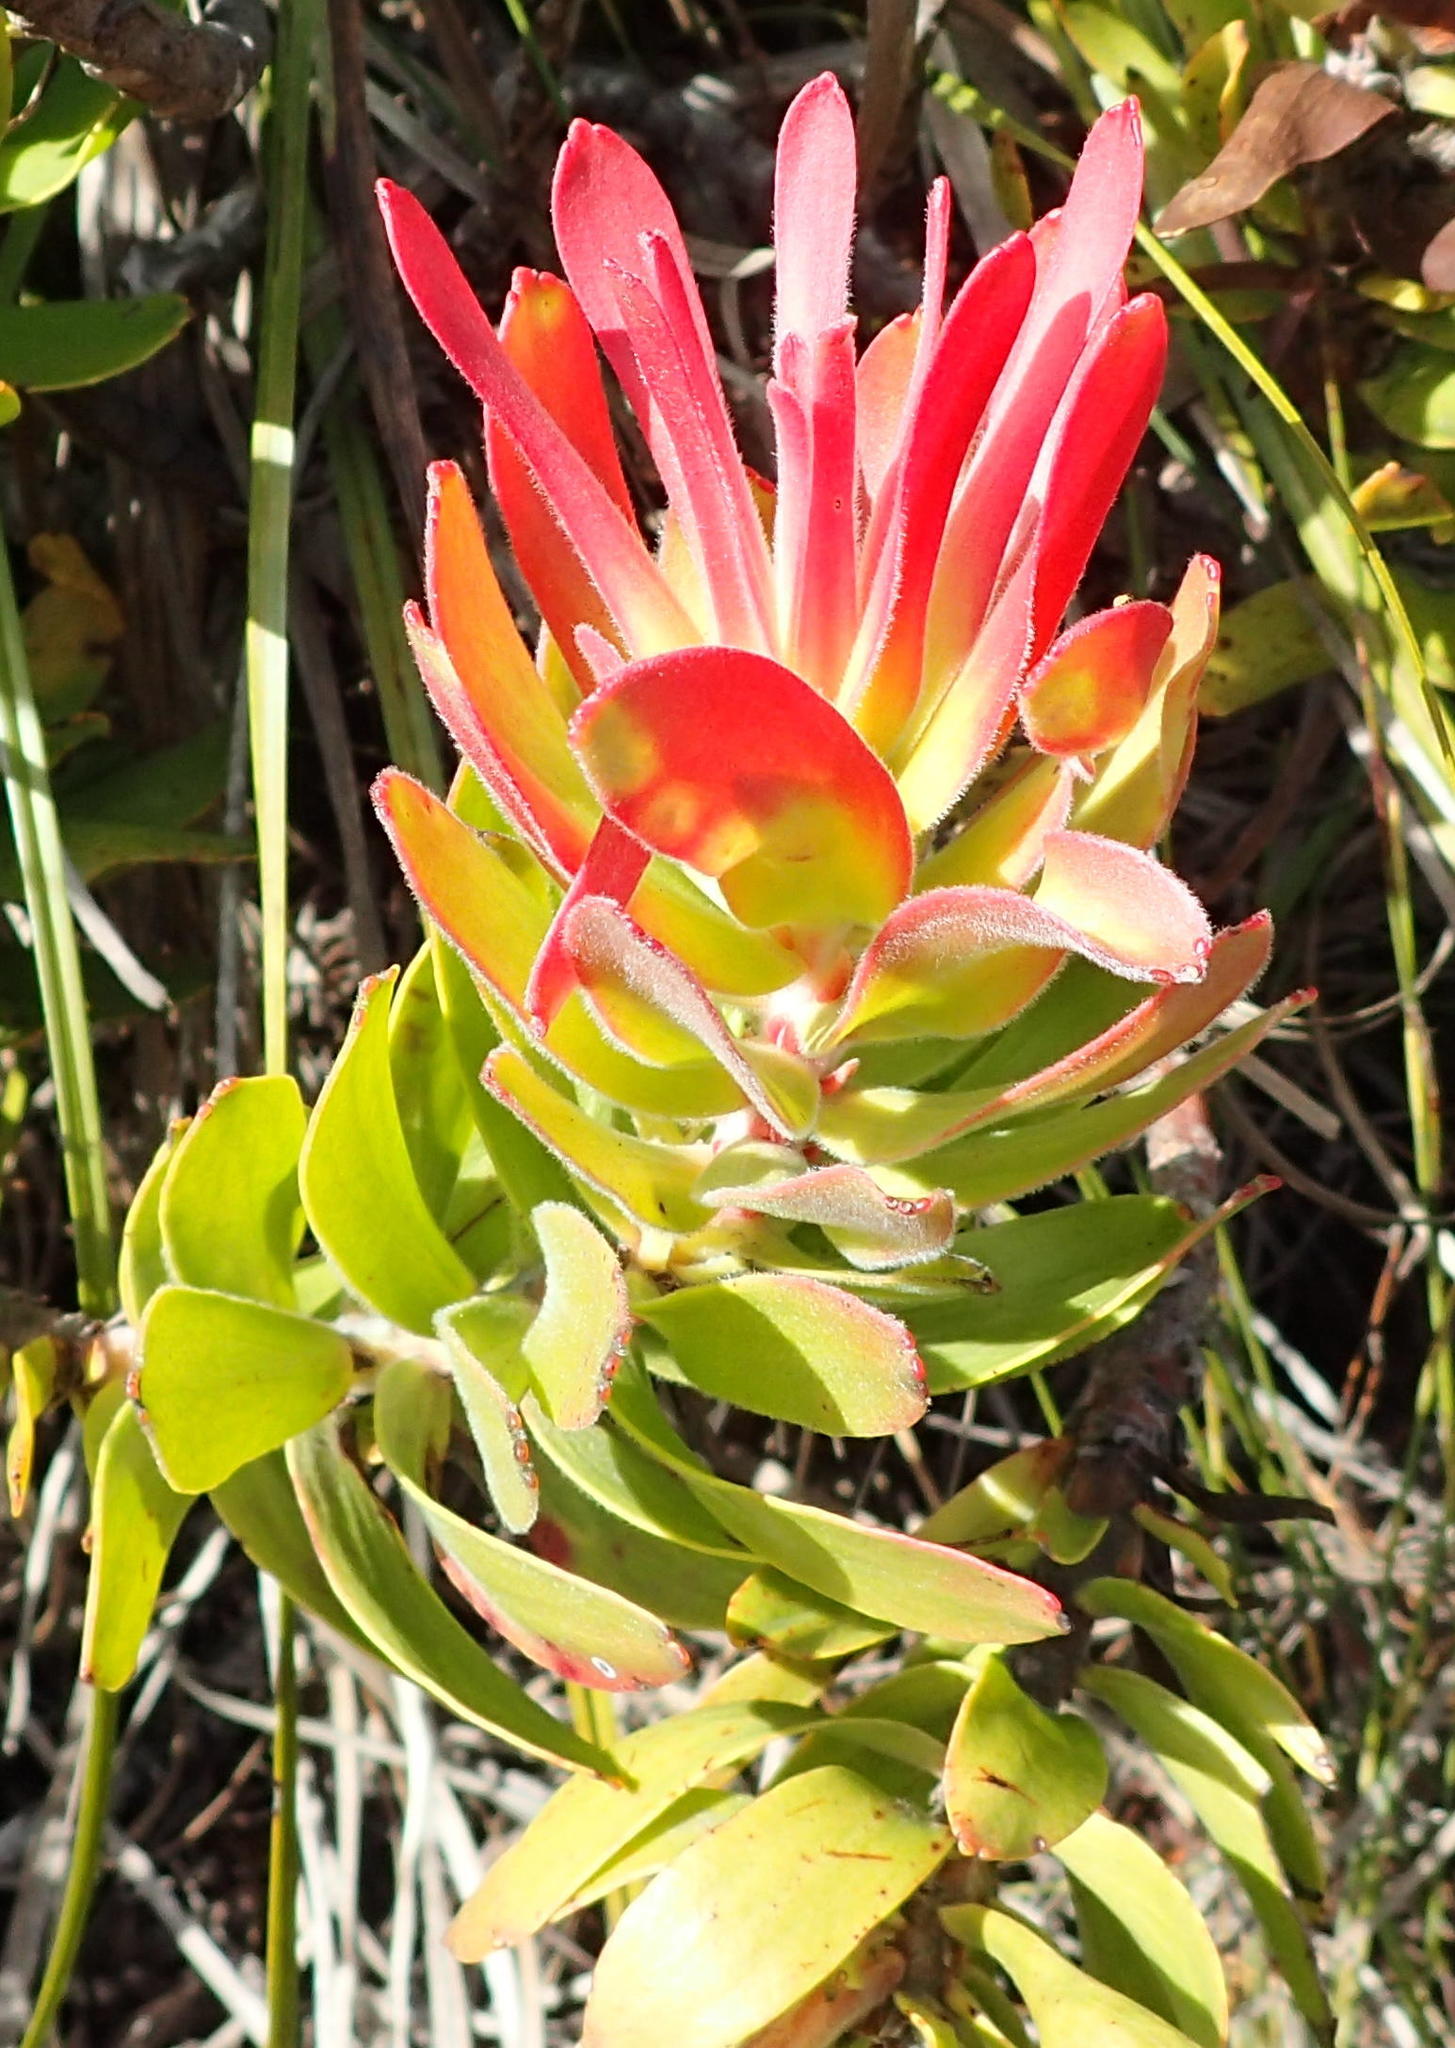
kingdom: Plantae
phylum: Tracheophyta
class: Magnoliopsida
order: Proteales
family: Proteaceae
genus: Mimetes
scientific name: Mimetes cucullatus
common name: Common pagoda
